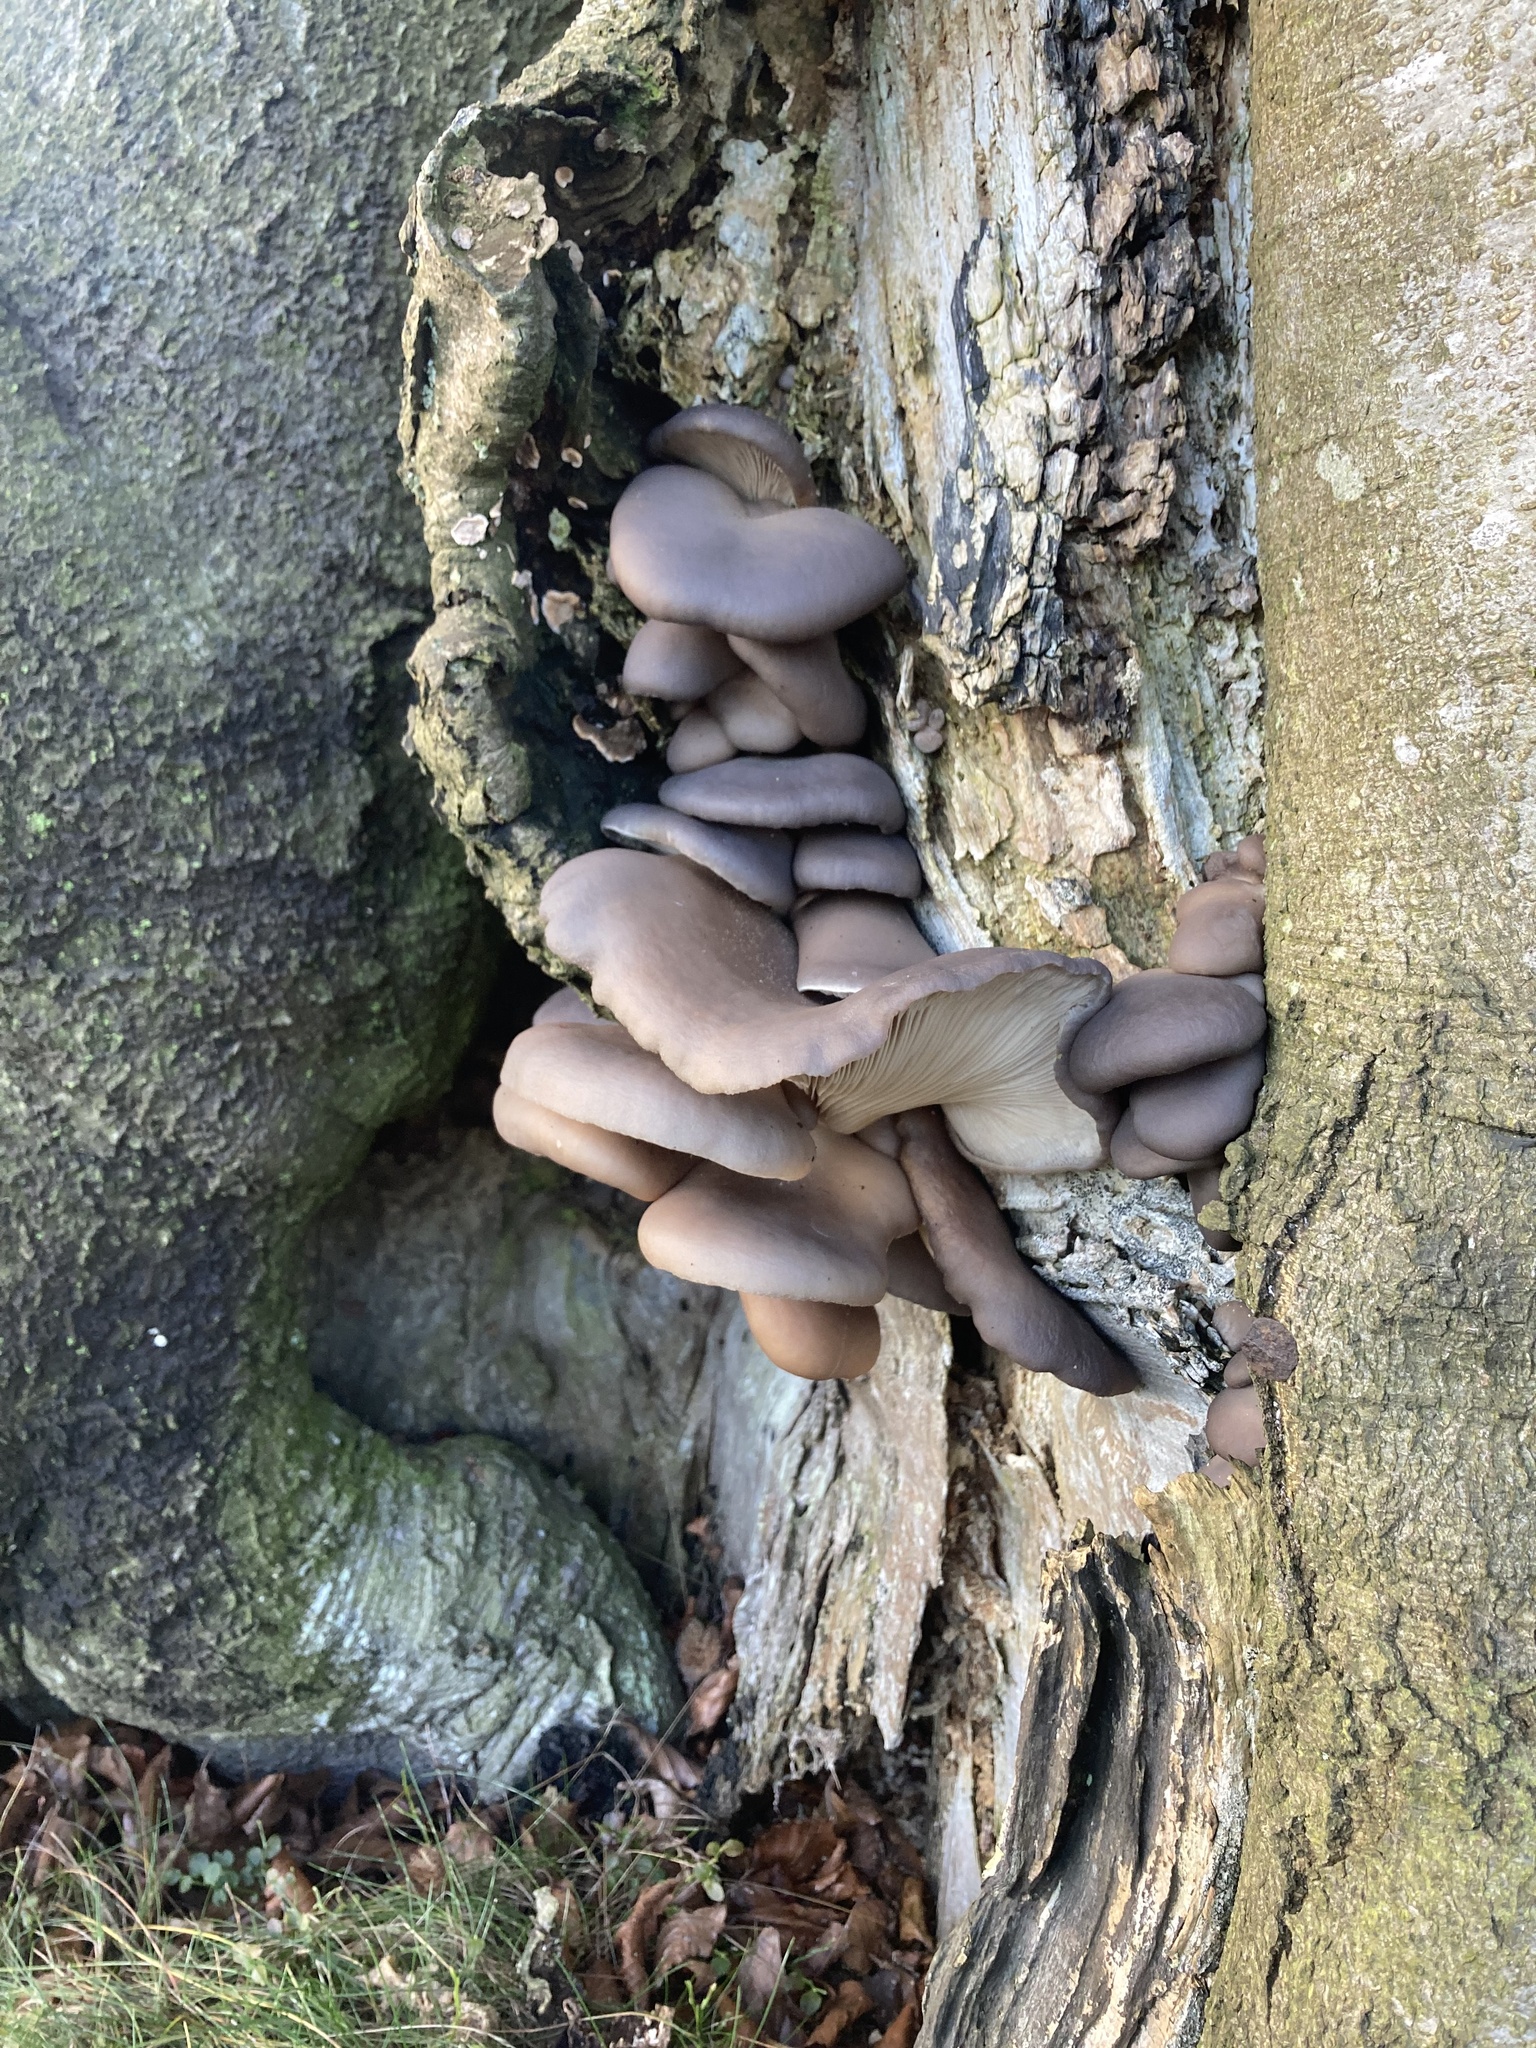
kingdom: Fungi
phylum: Basidiomycota
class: Agaricomycetes
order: Agaricales
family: Pleurotaceae
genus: Pleurotus
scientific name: Pleurotus ostreatus
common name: Oyster mushroom
